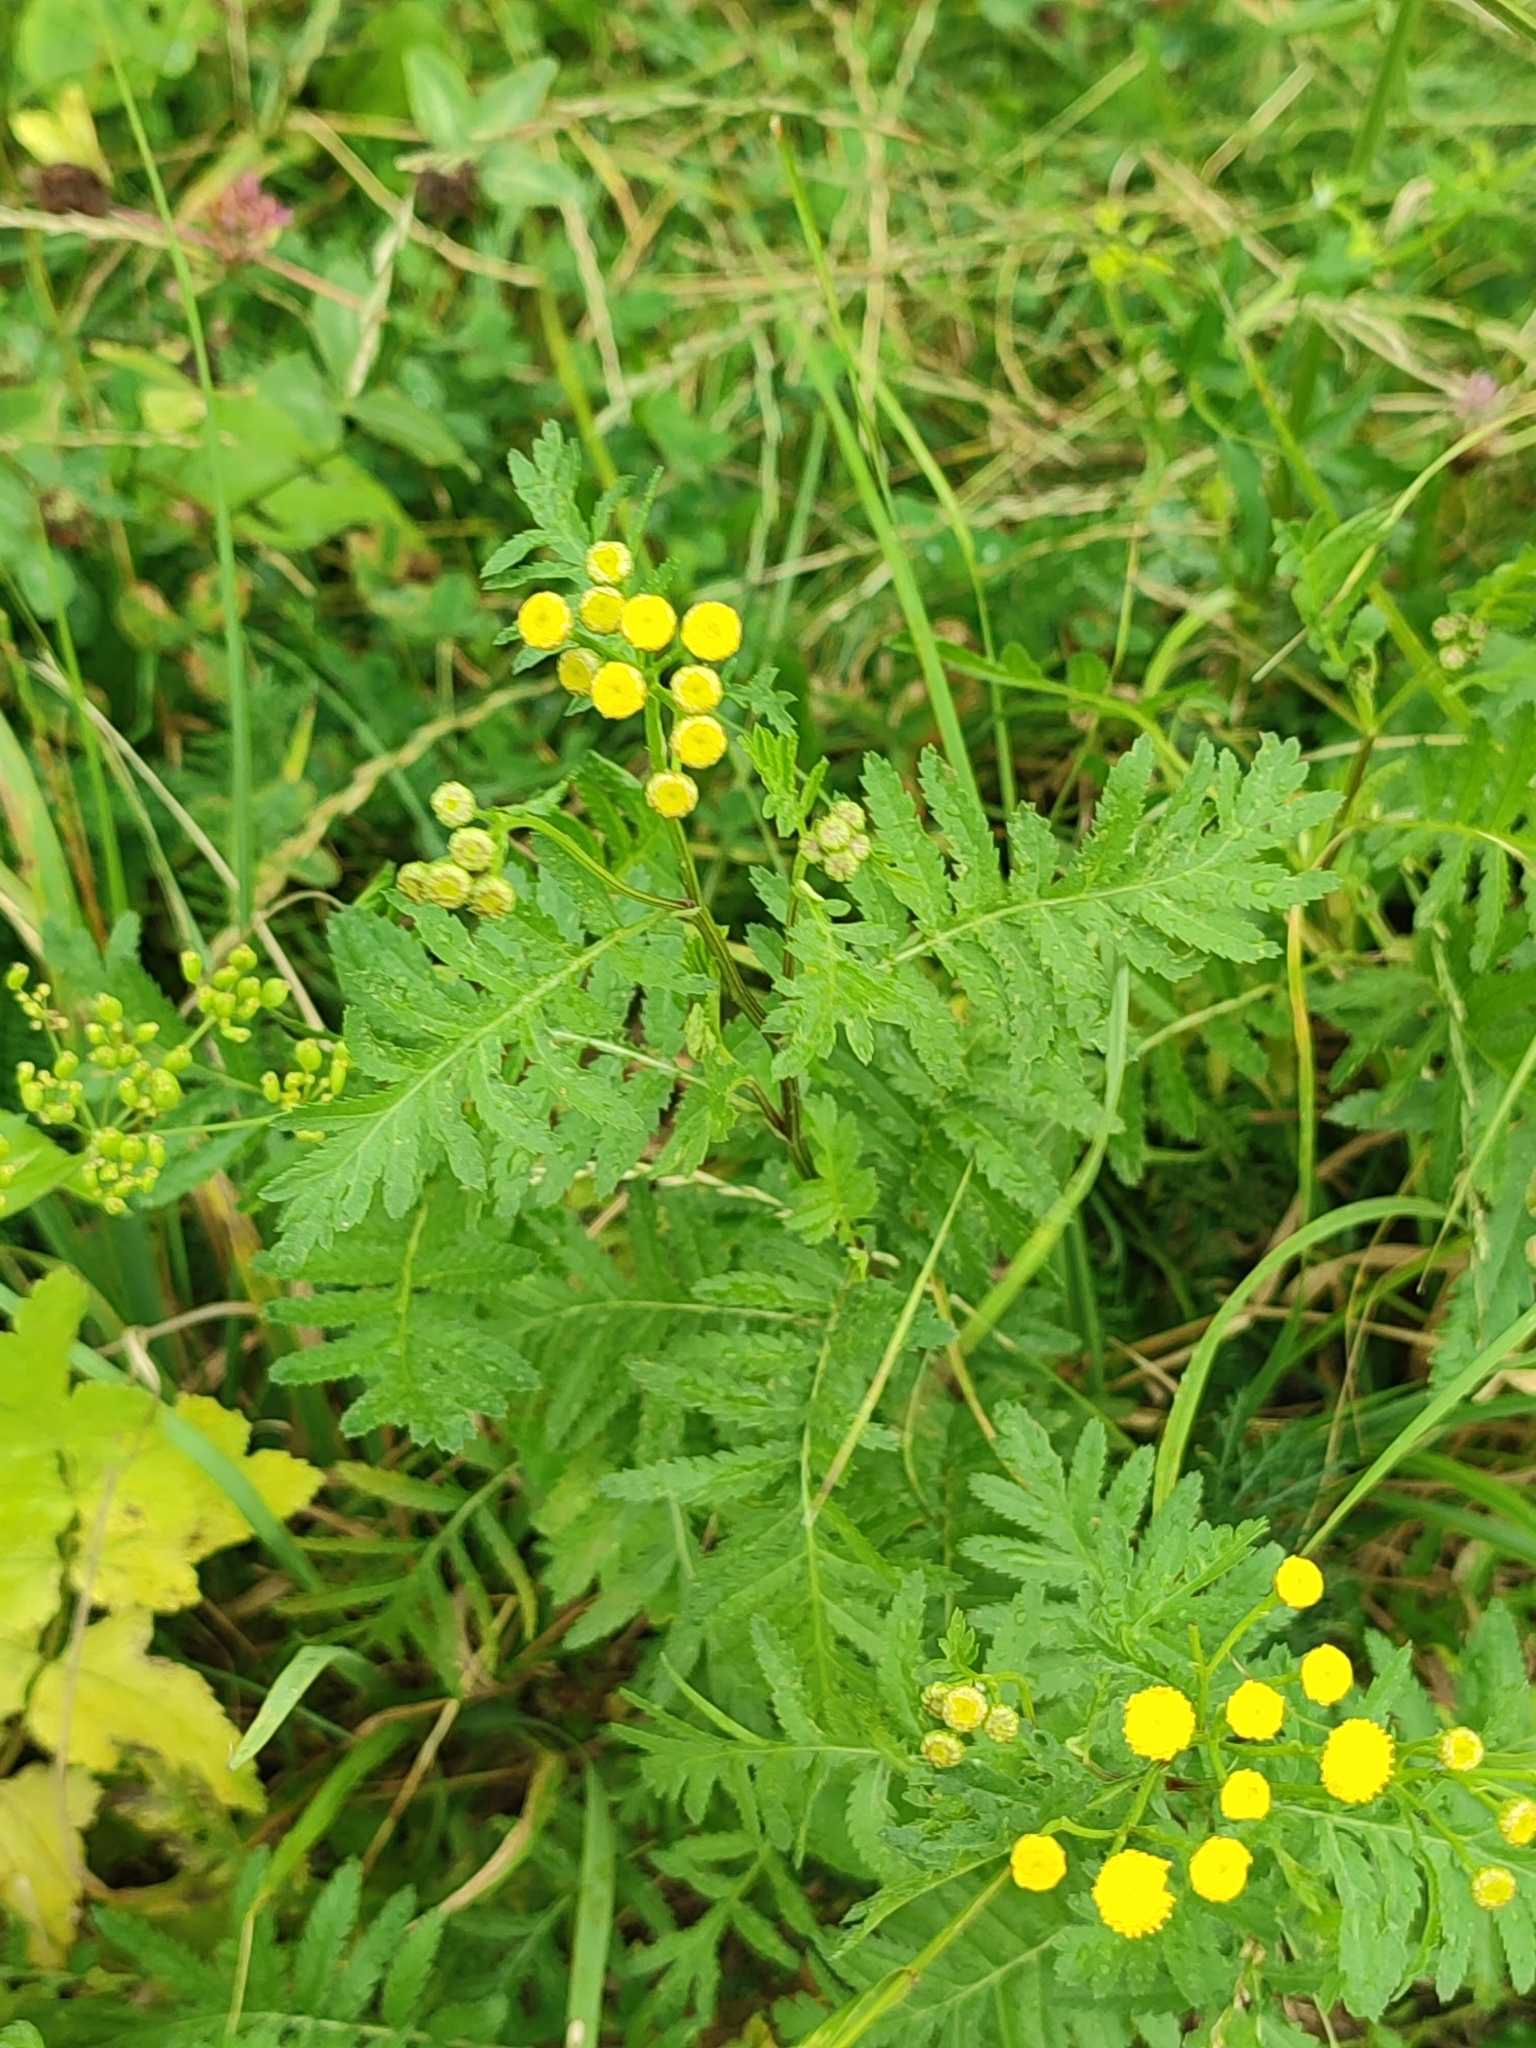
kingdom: Plantae
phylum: Tracheophyta
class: Magnoliopsida
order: Asterales
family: Asteraceae
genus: Tanacetum
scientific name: Tanacetum vulgare
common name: Common tansy
